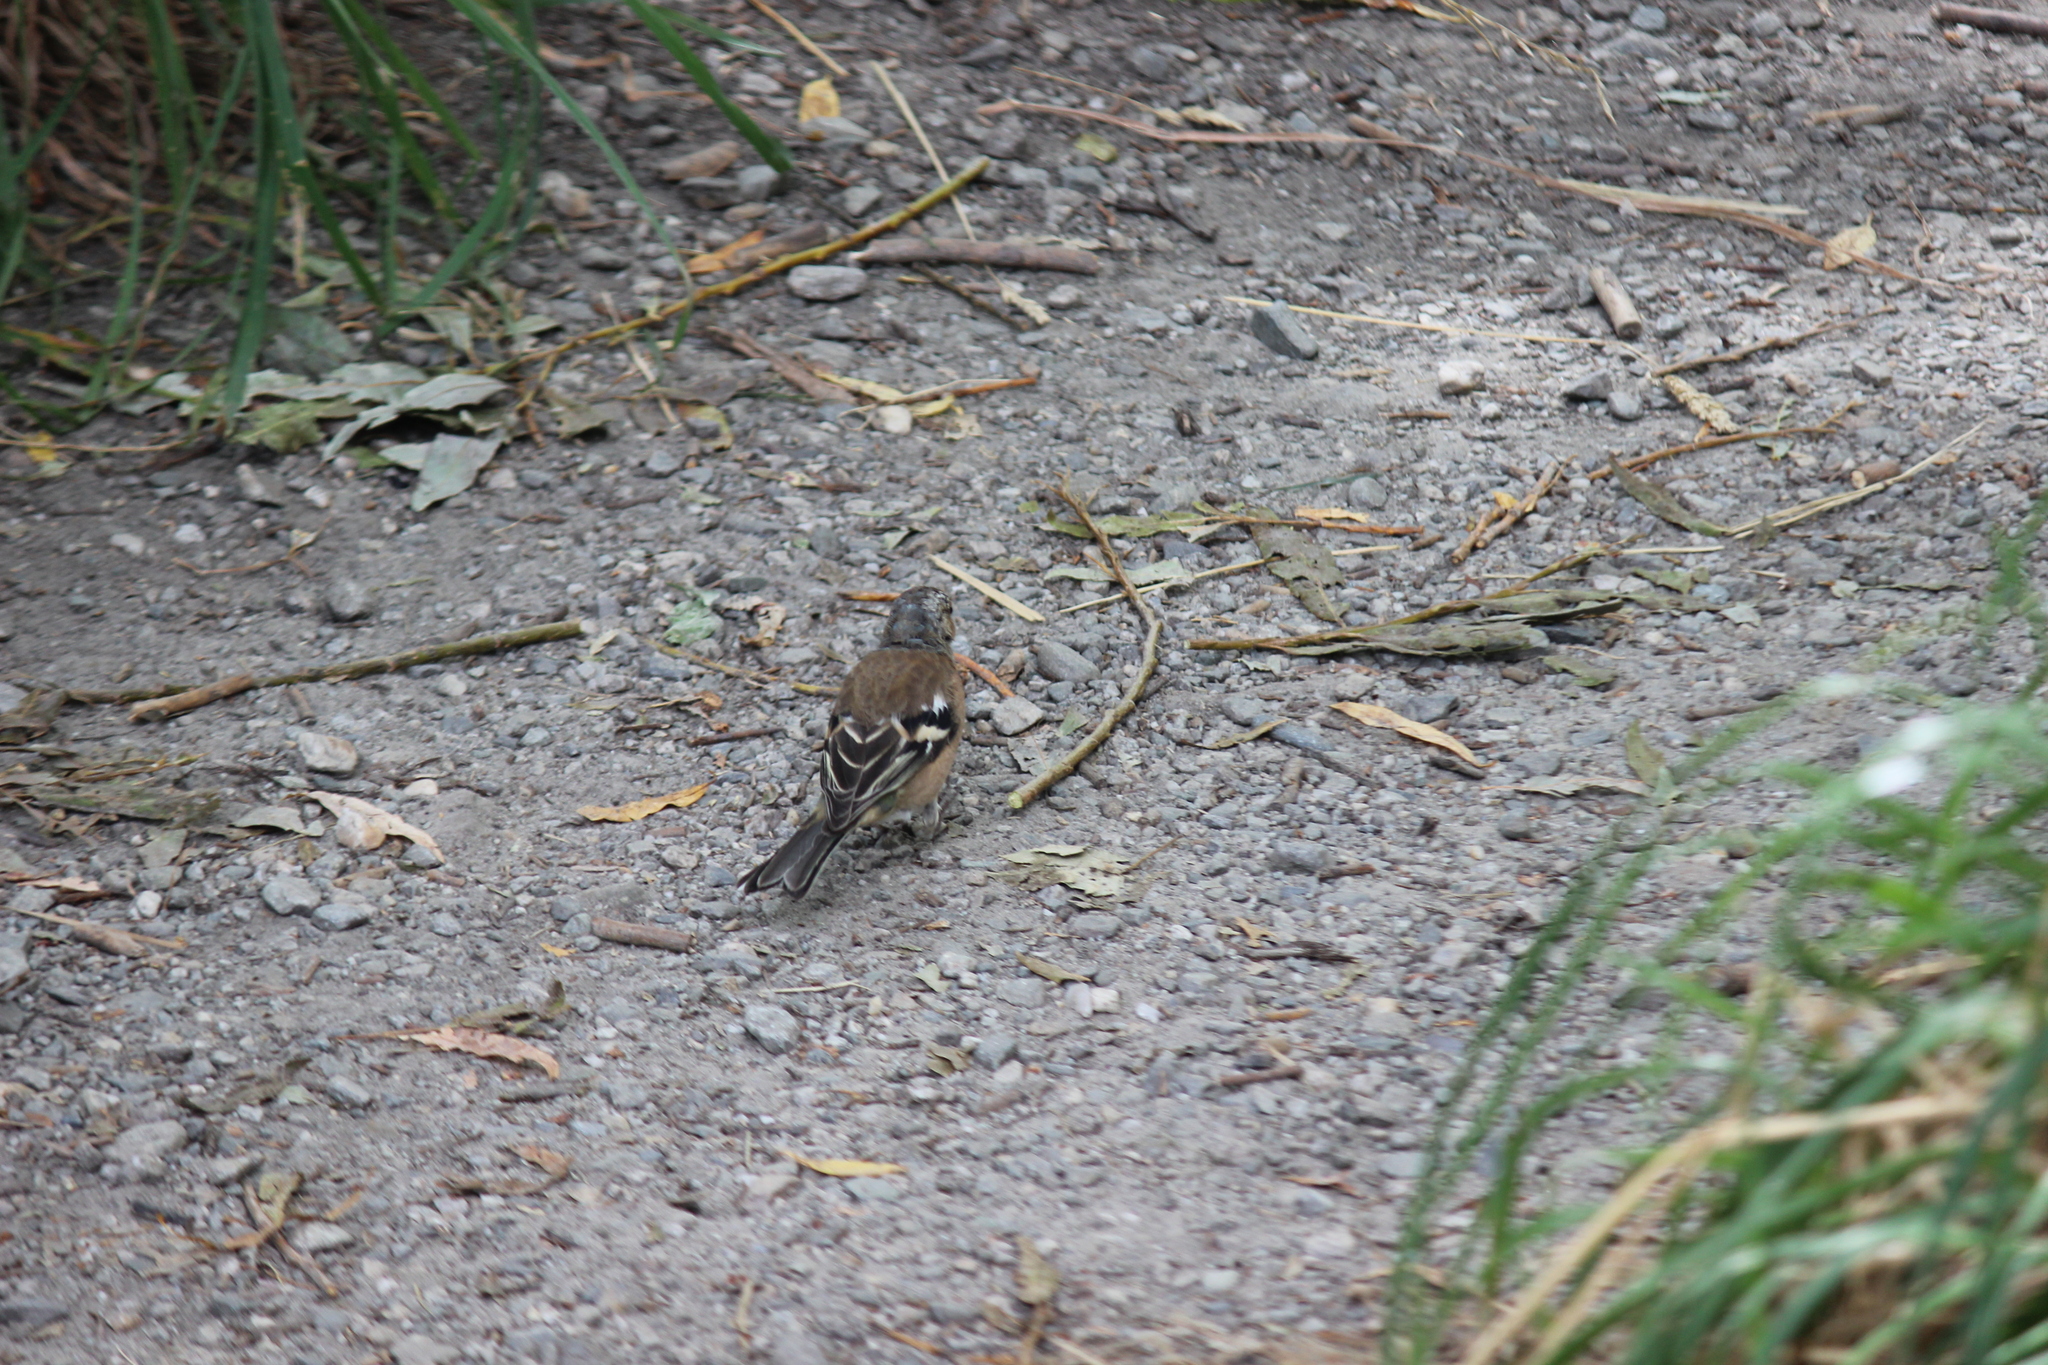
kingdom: Animalia
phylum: Chordata
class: Aves
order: Passeriformes
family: Fringillidae
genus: Fringilla
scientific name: Fringilla coelebs
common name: Common chaffinch
